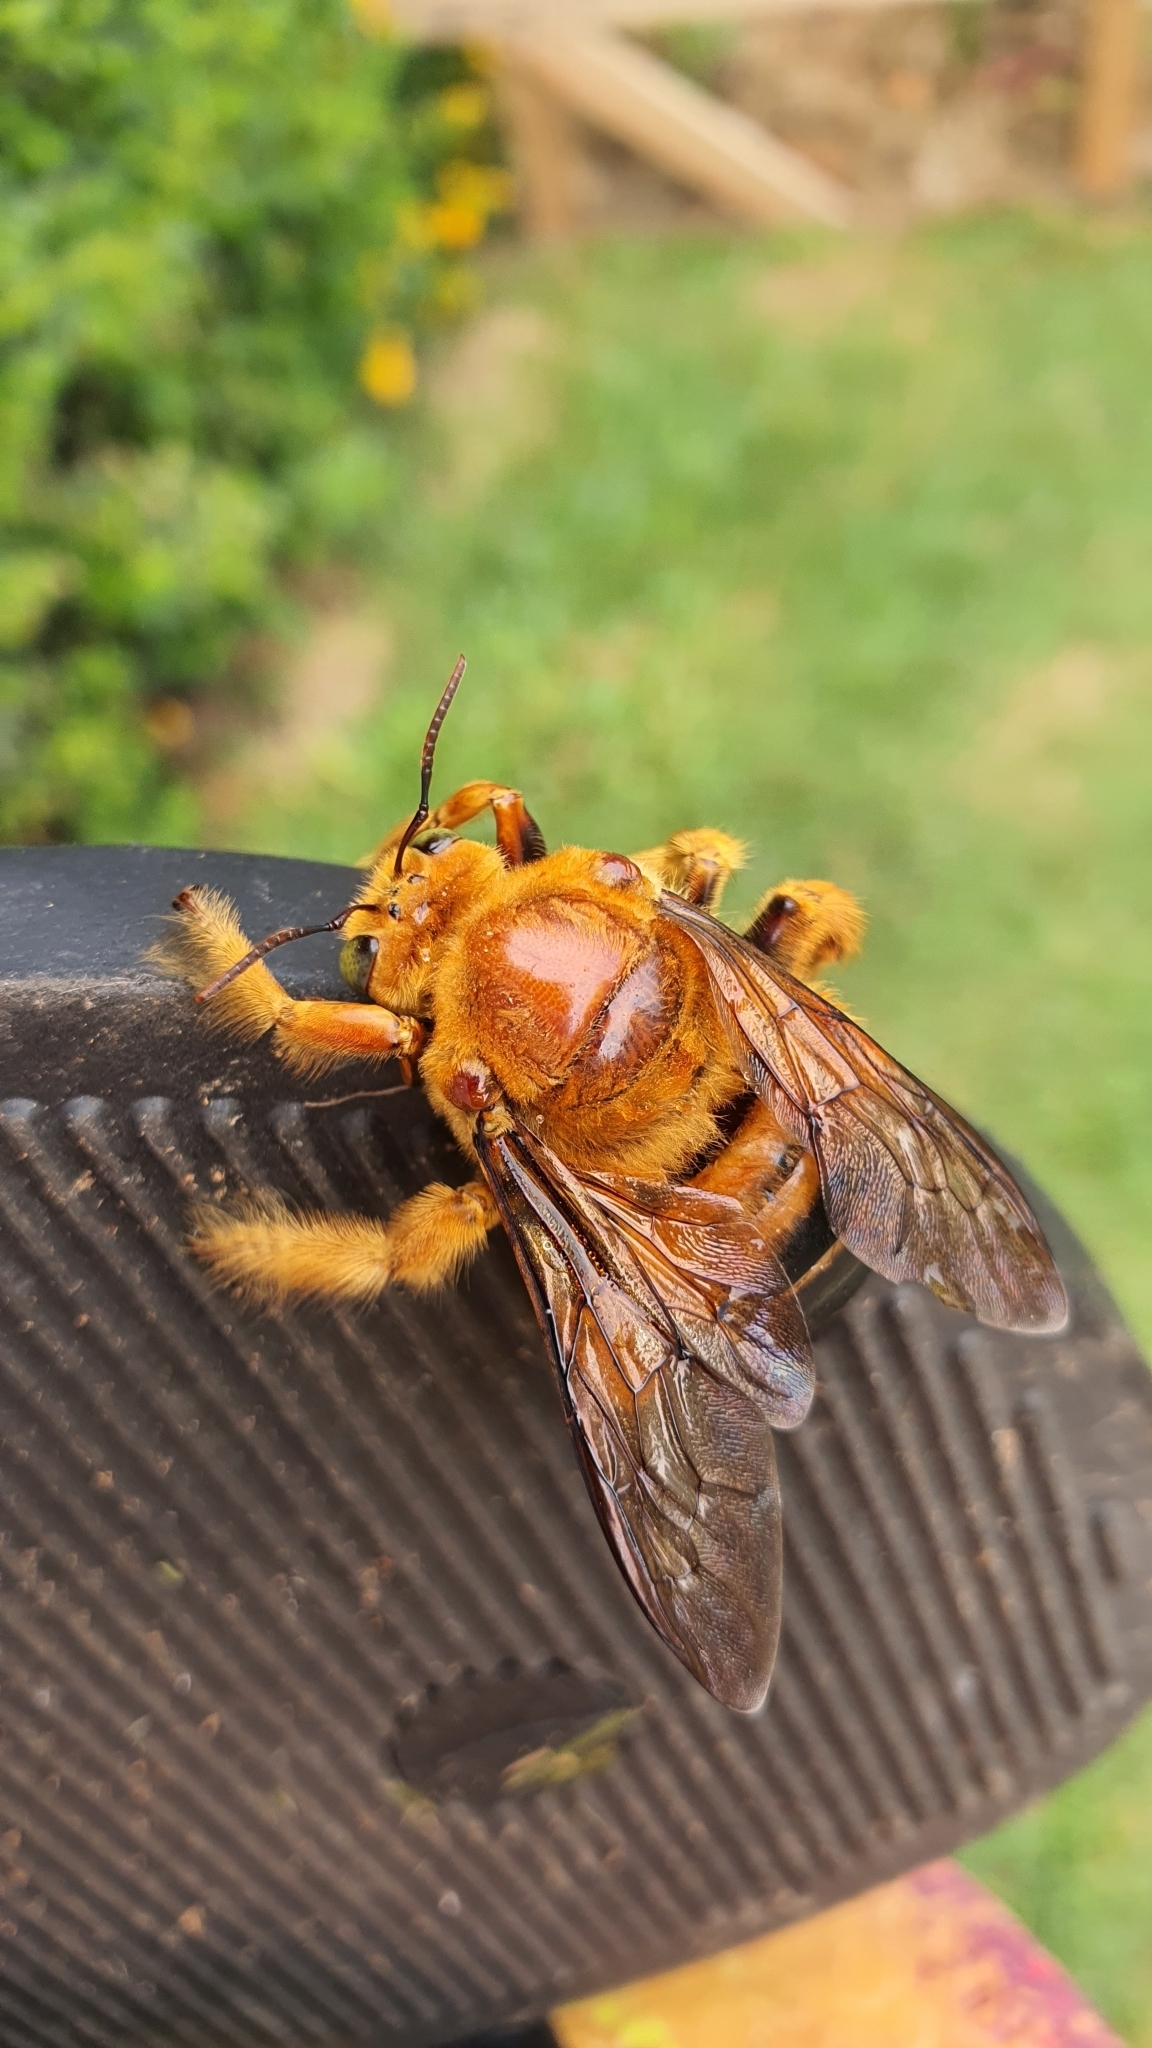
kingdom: Animalia
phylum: Arthropoda
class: Insecta
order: Hymenoptera
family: Apidae
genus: Xylocopa
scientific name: Xylocopa frontalis
